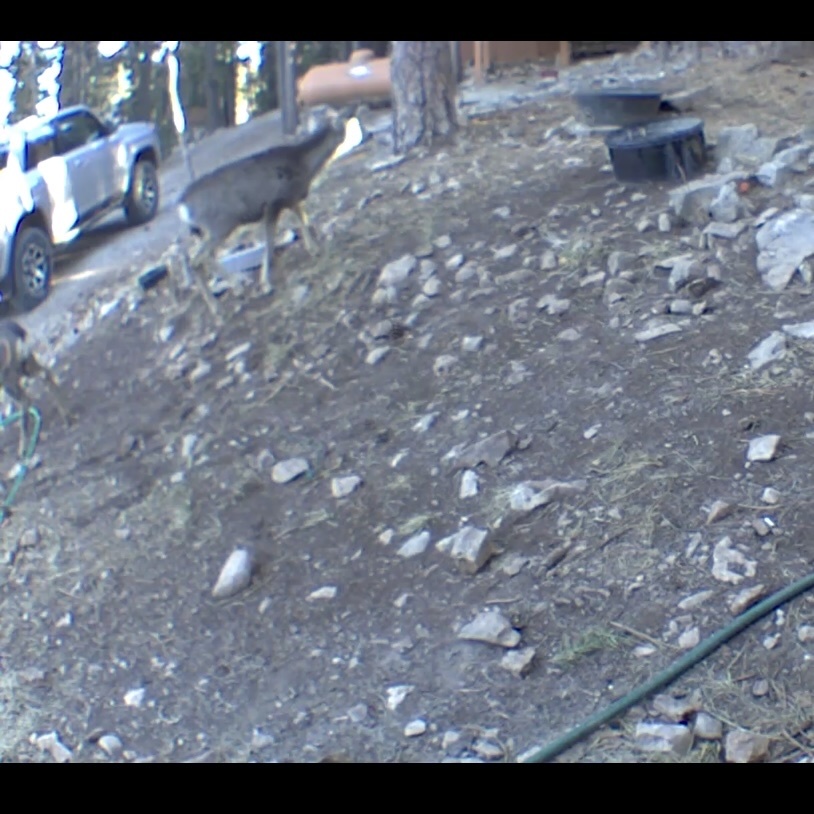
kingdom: Animalia
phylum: Chordata
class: Mammalia
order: Artiodactyla
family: Cervidae
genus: Odocoileus
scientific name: Odocoileus hemionus
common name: Mule deer
